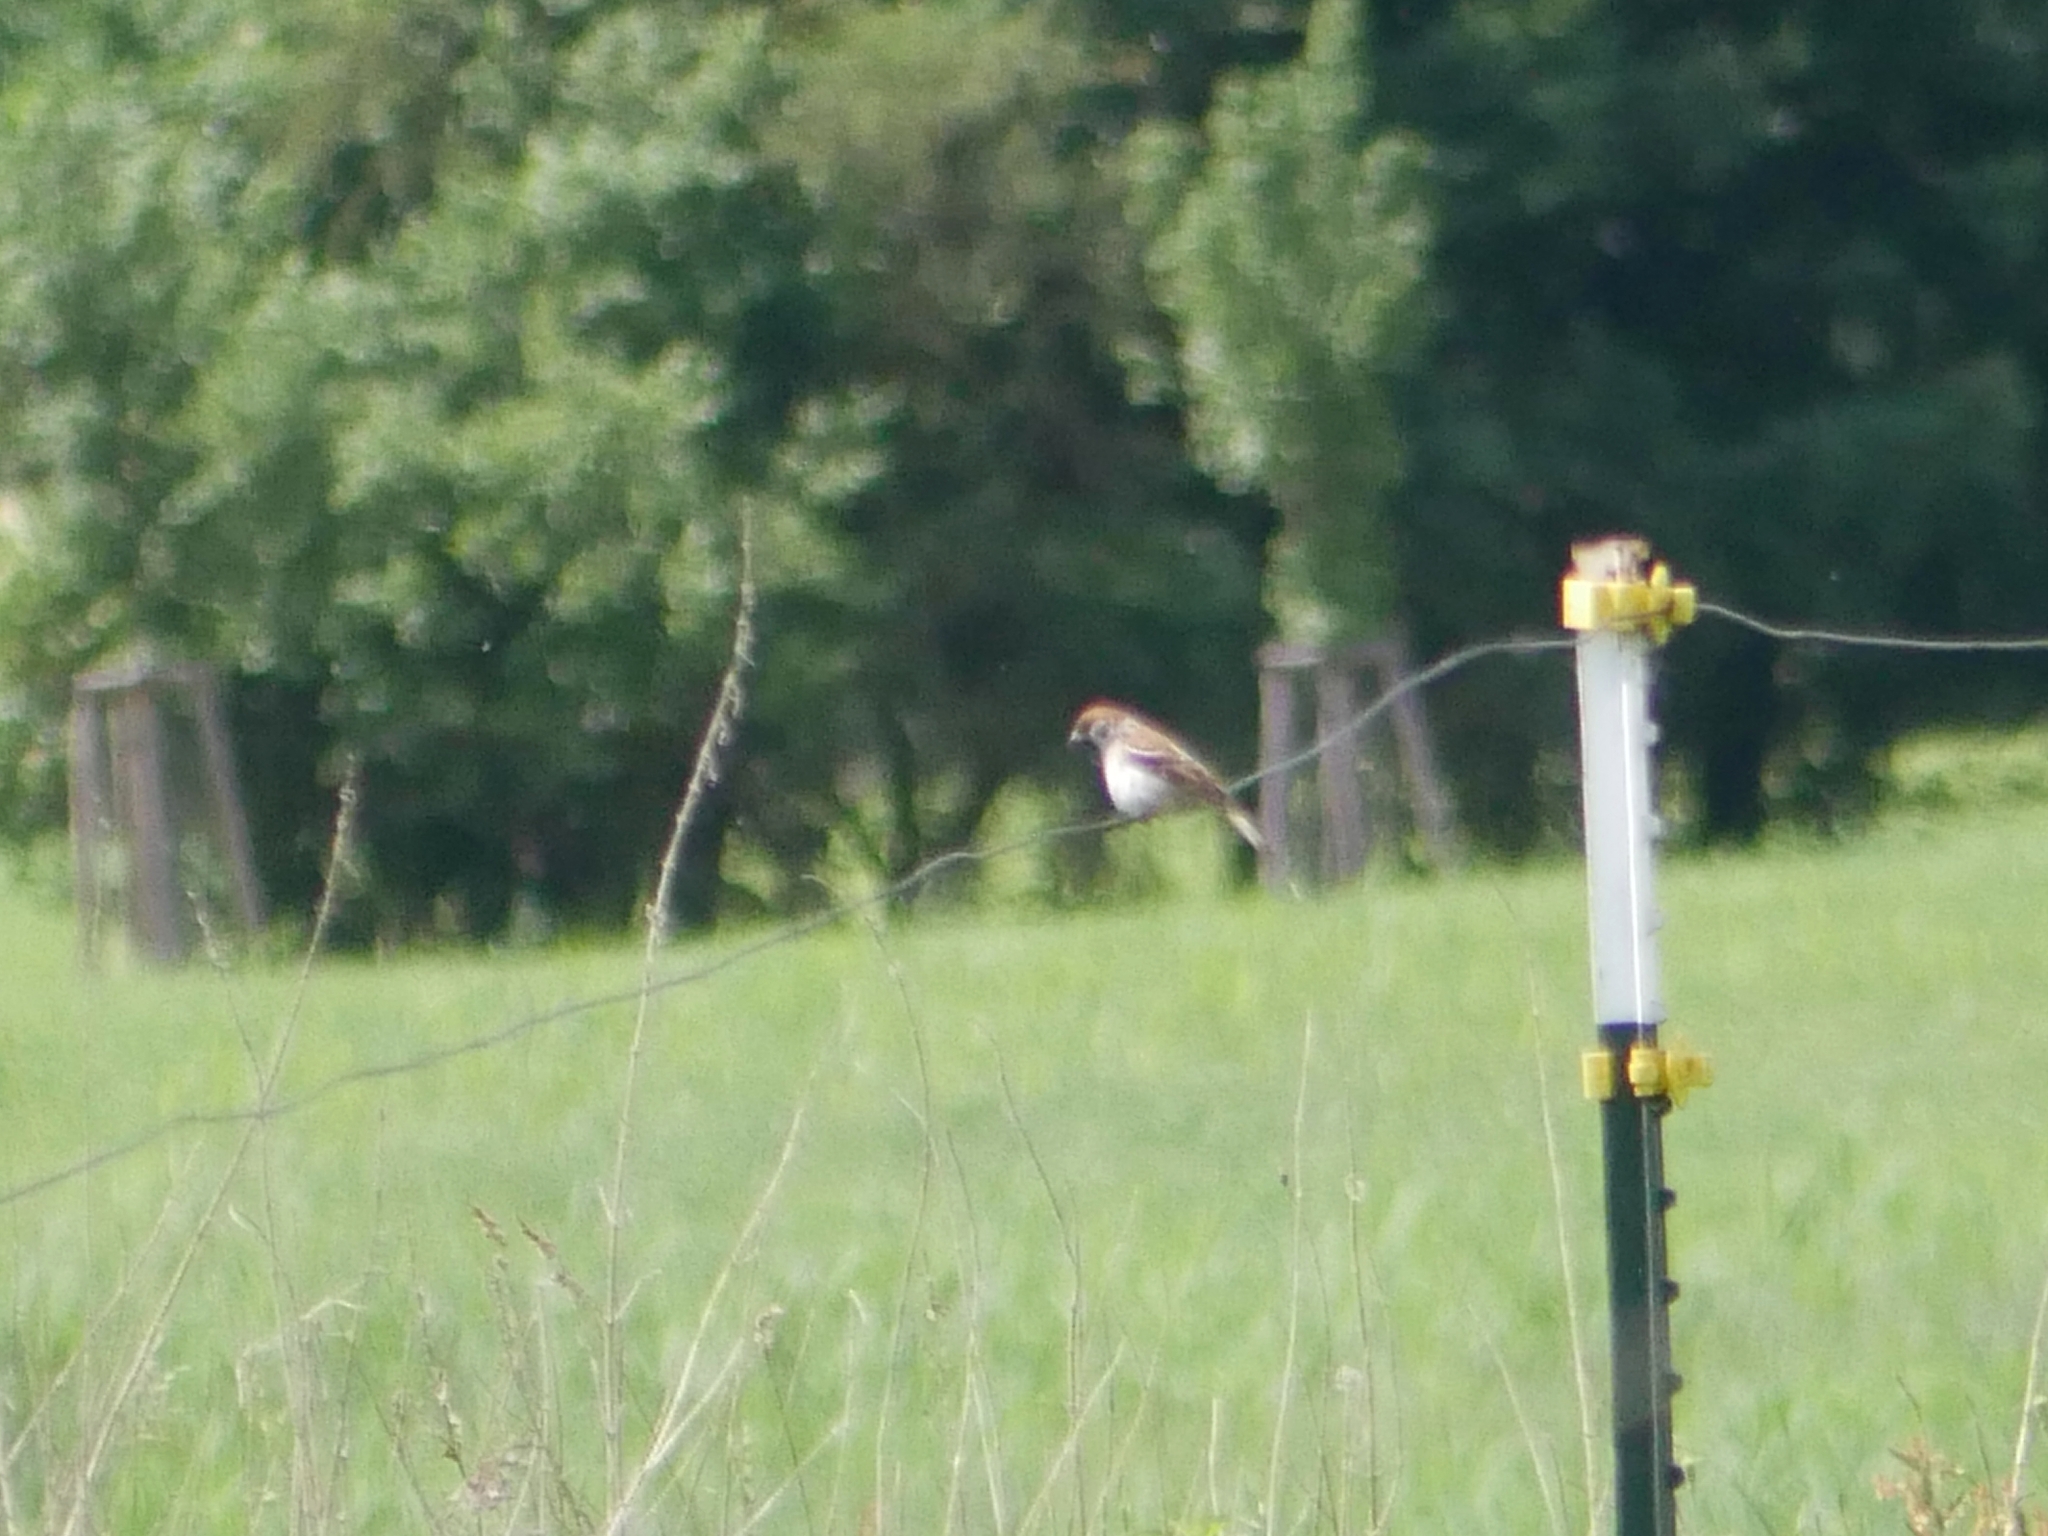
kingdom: Animalia
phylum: Chordata
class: Aves
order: Passeriformes
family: Passeridae
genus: Passer
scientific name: Passer montanus
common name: Eurasian tree sparrow
